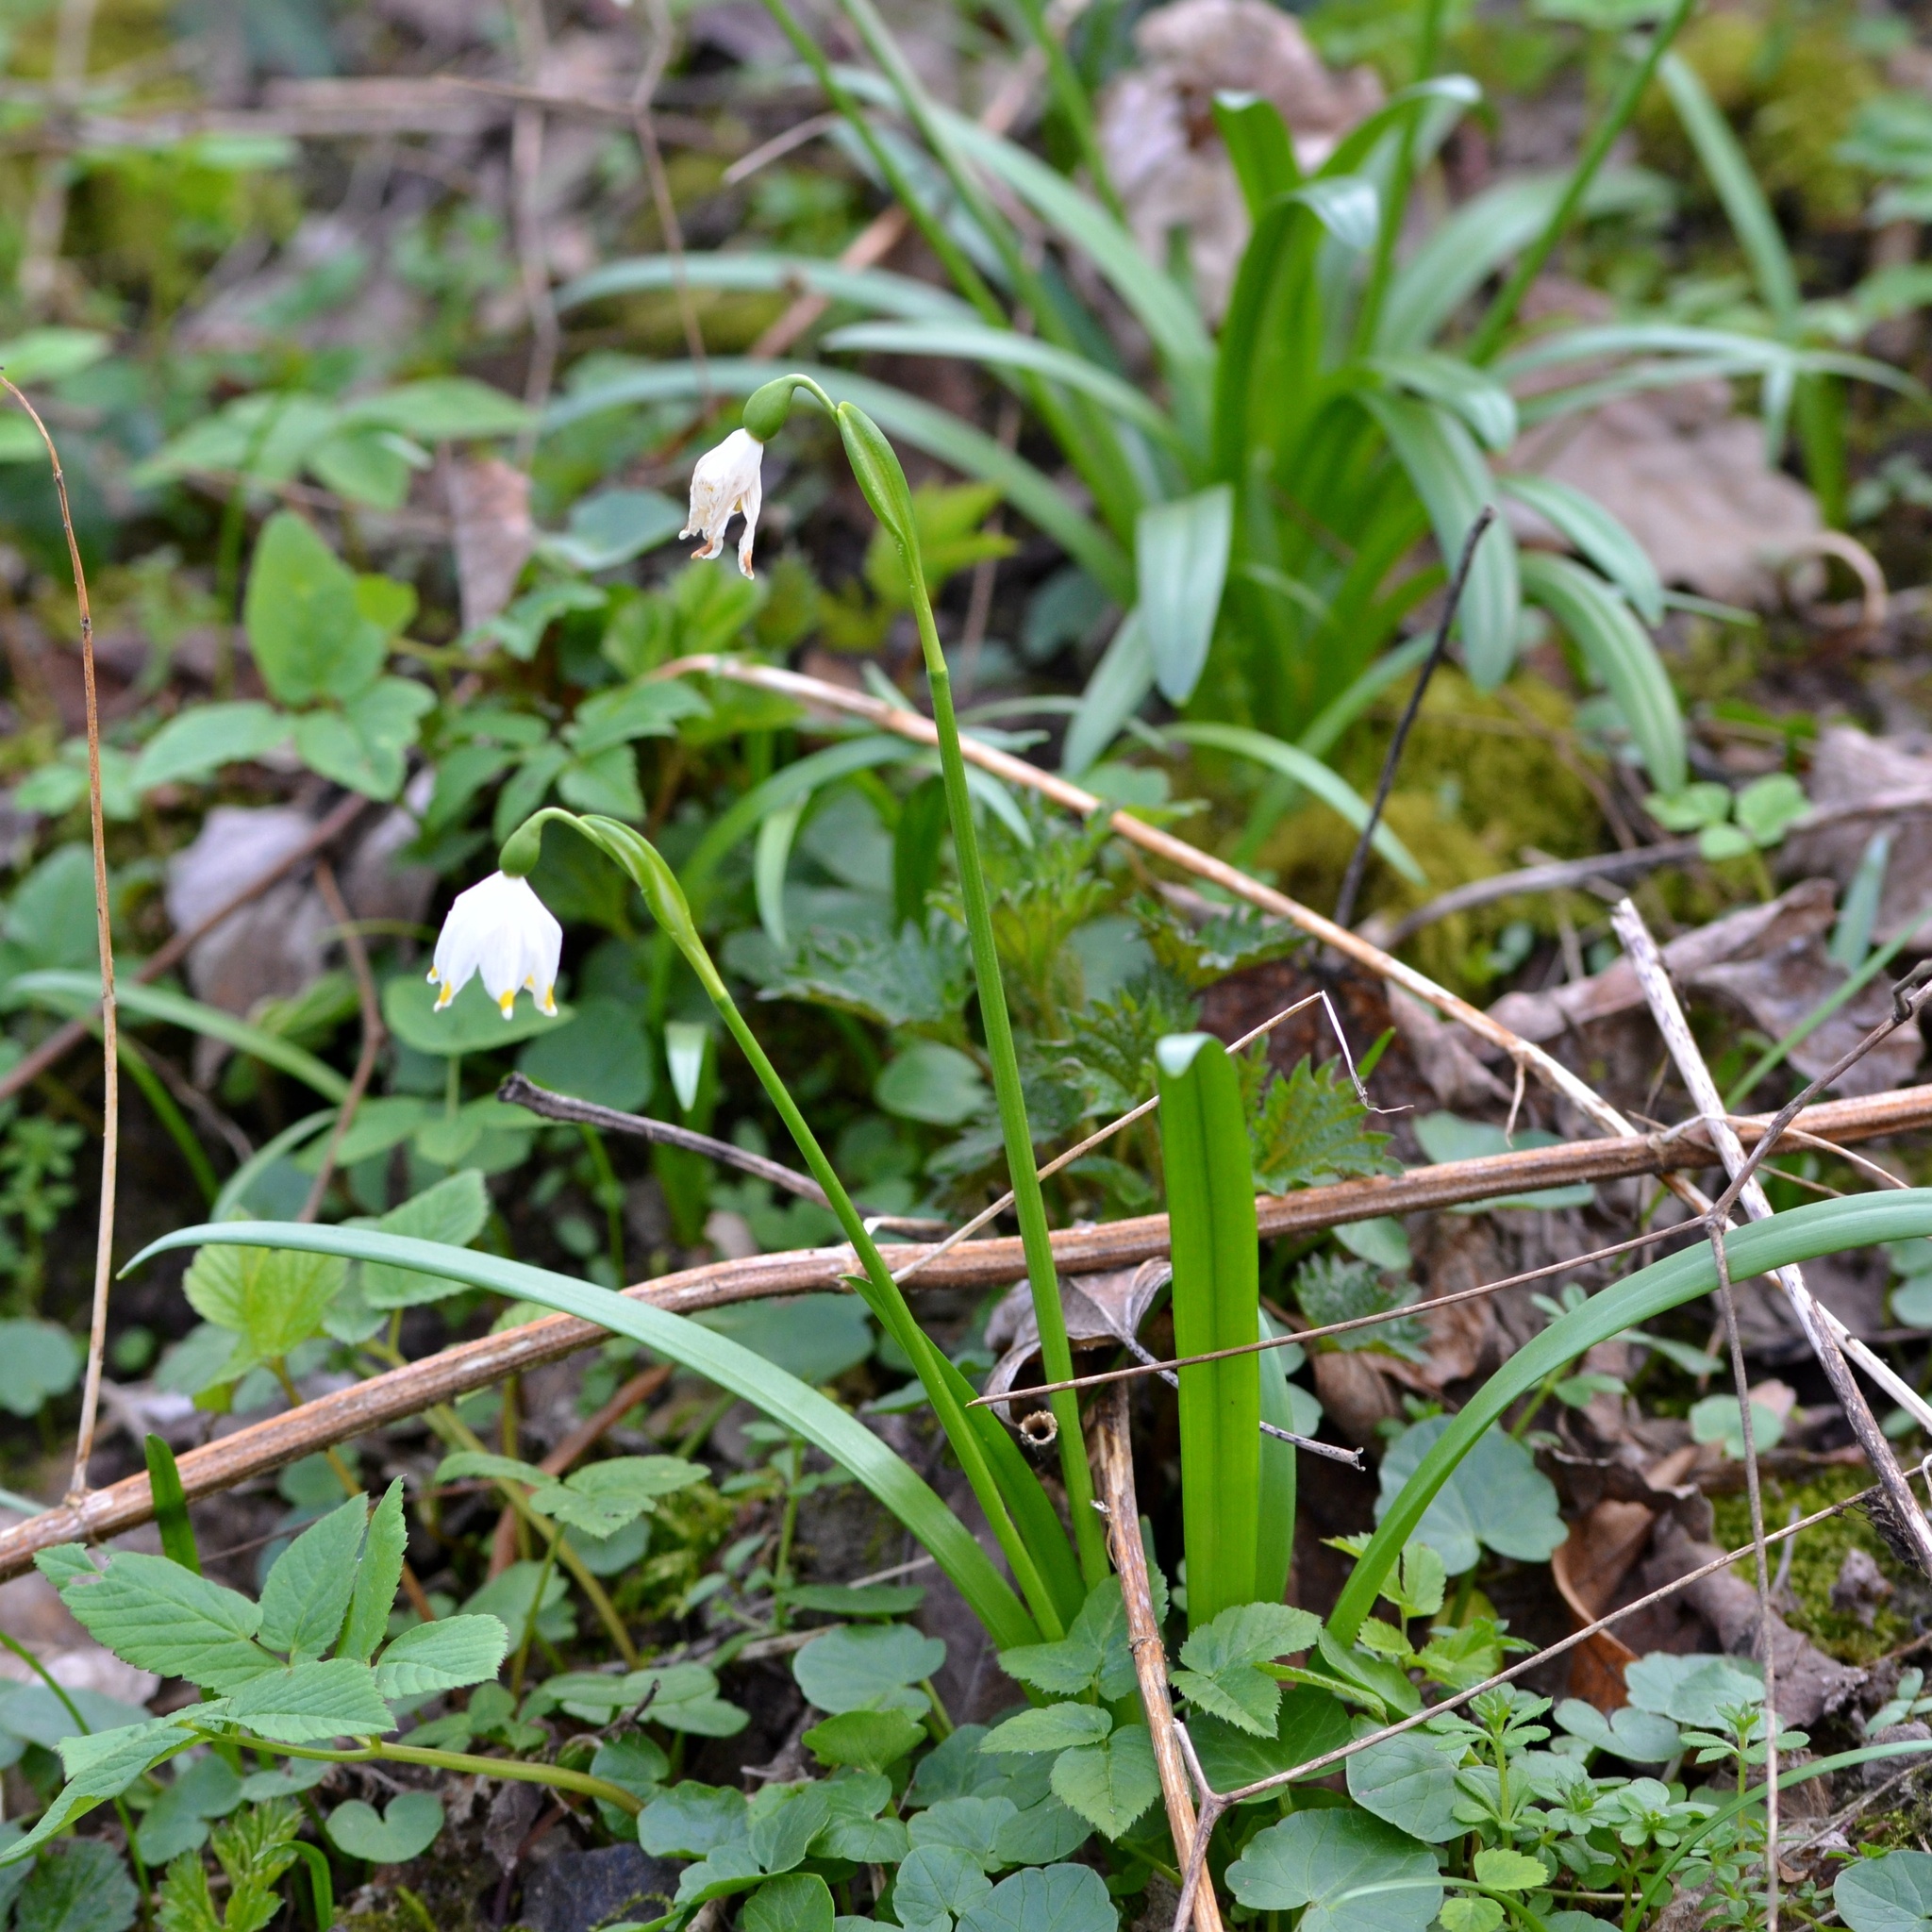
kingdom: Plantae
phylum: Tracheophyta
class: Liliopsida
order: Asparagales
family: Amaryllidaceae
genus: Leucojum
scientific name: Leucojum vernum
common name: Spring snowflake
